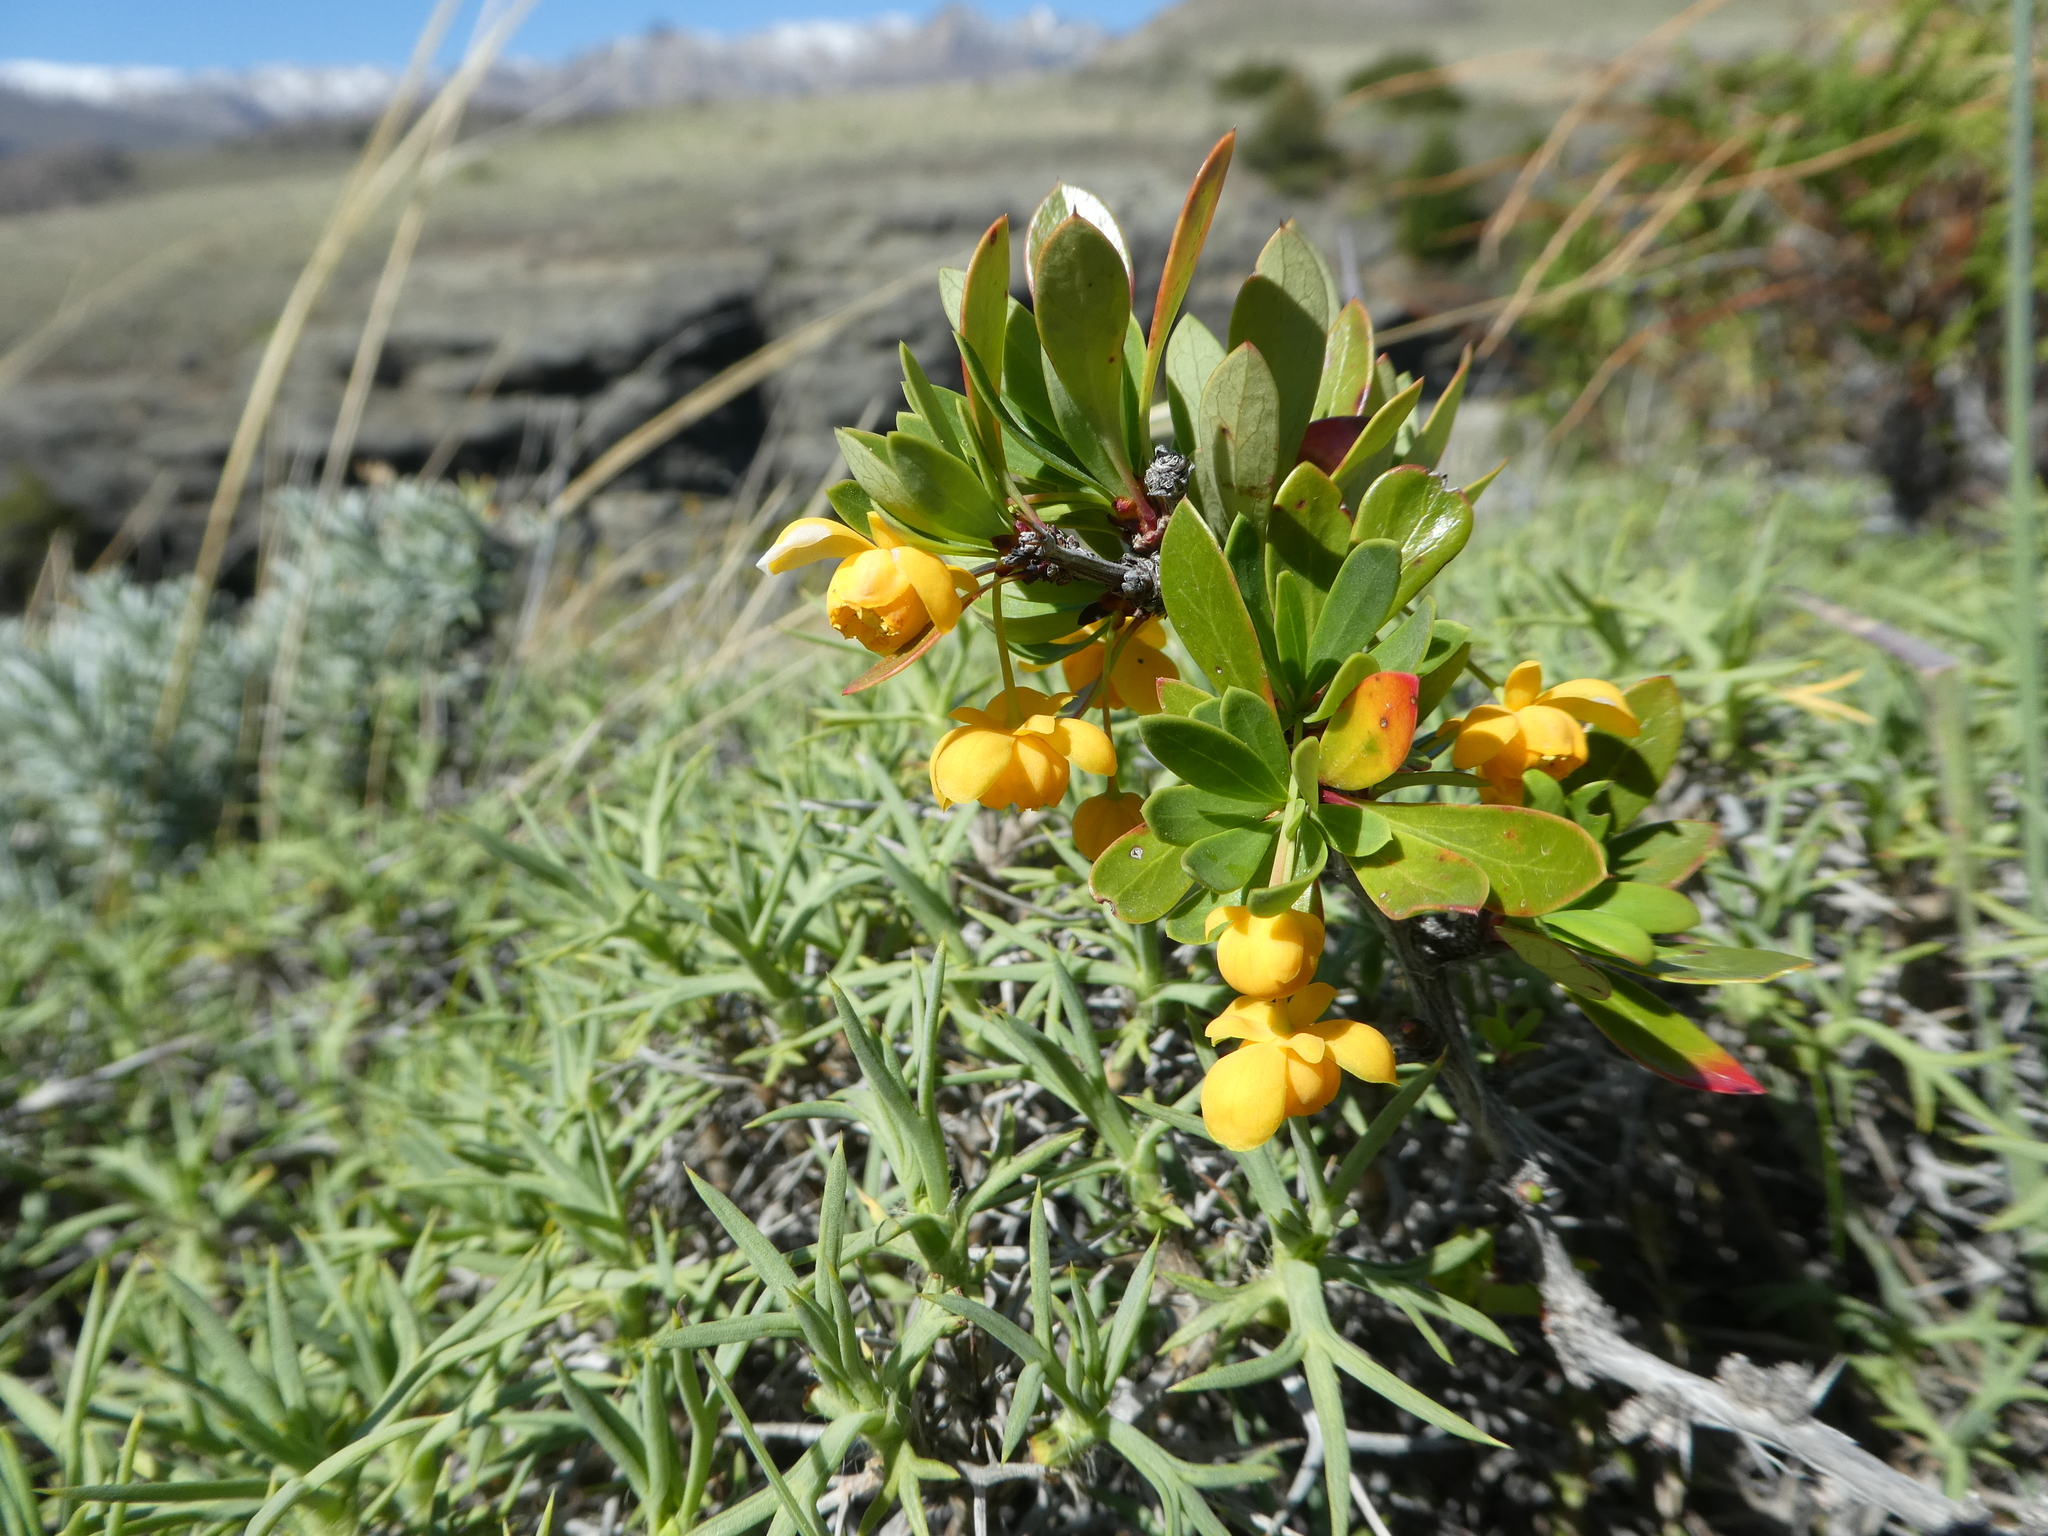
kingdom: Plantae
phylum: Tracheophyta
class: Magnoliopsida
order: Ranunculales
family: Berberidaceae
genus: Berberis
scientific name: Berberis microphylla
